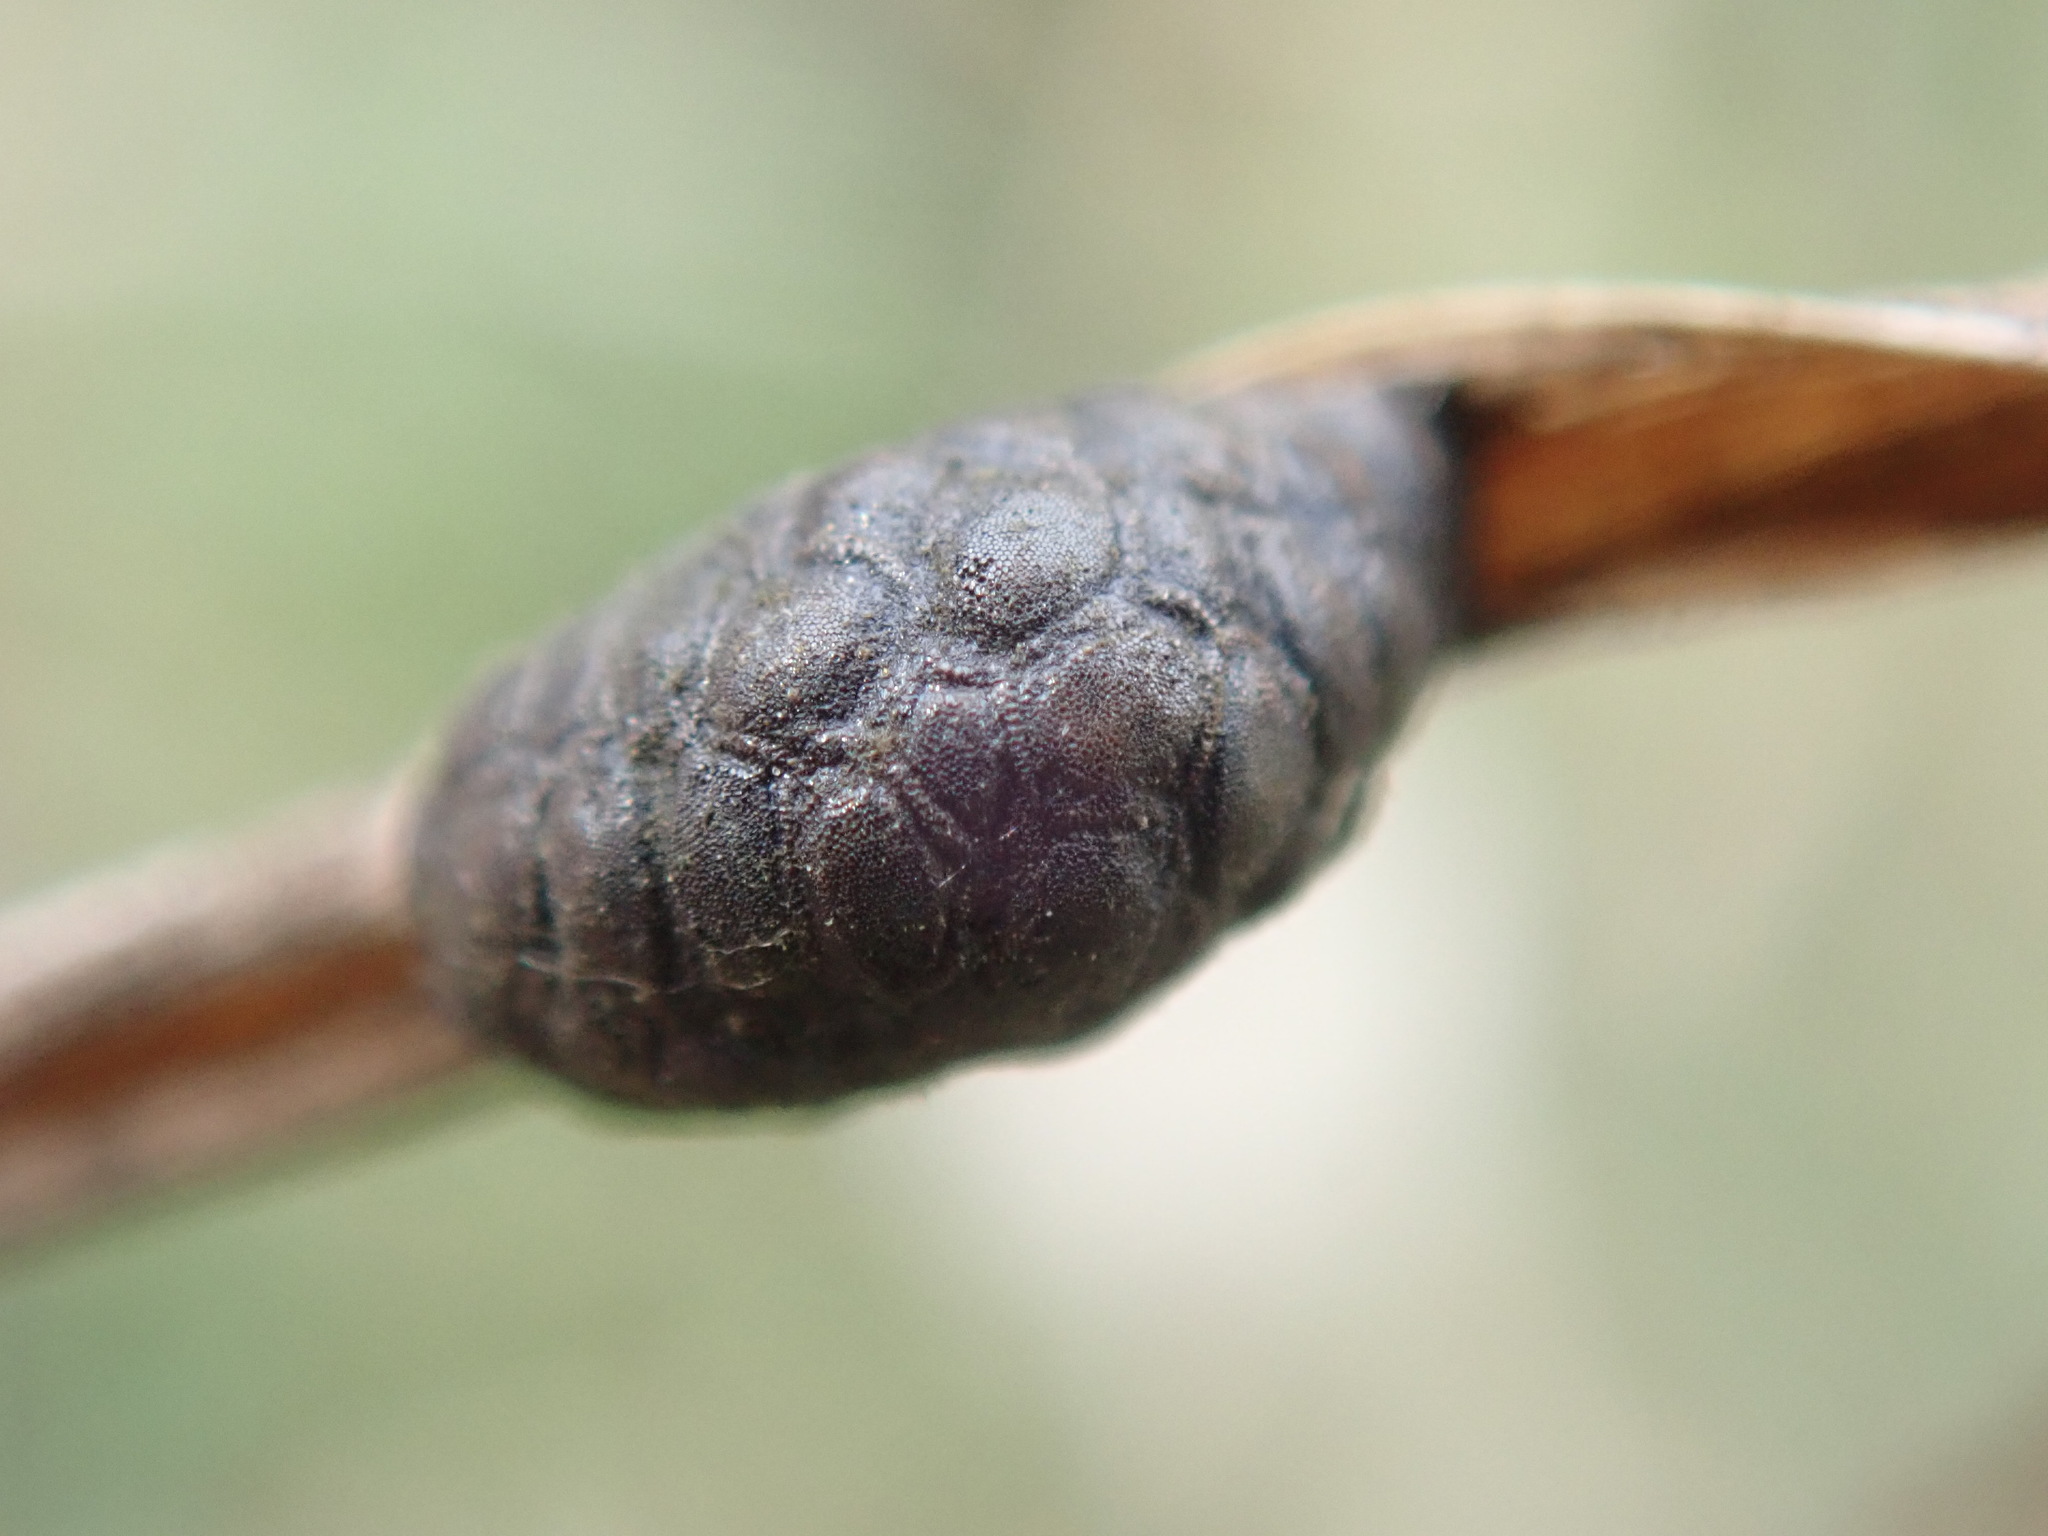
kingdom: Animalia
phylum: Arthropoda
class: Insecta
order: Coleoptera
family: Chrysomelidae
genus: Galeruca
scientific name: Galeruca tanaceti
